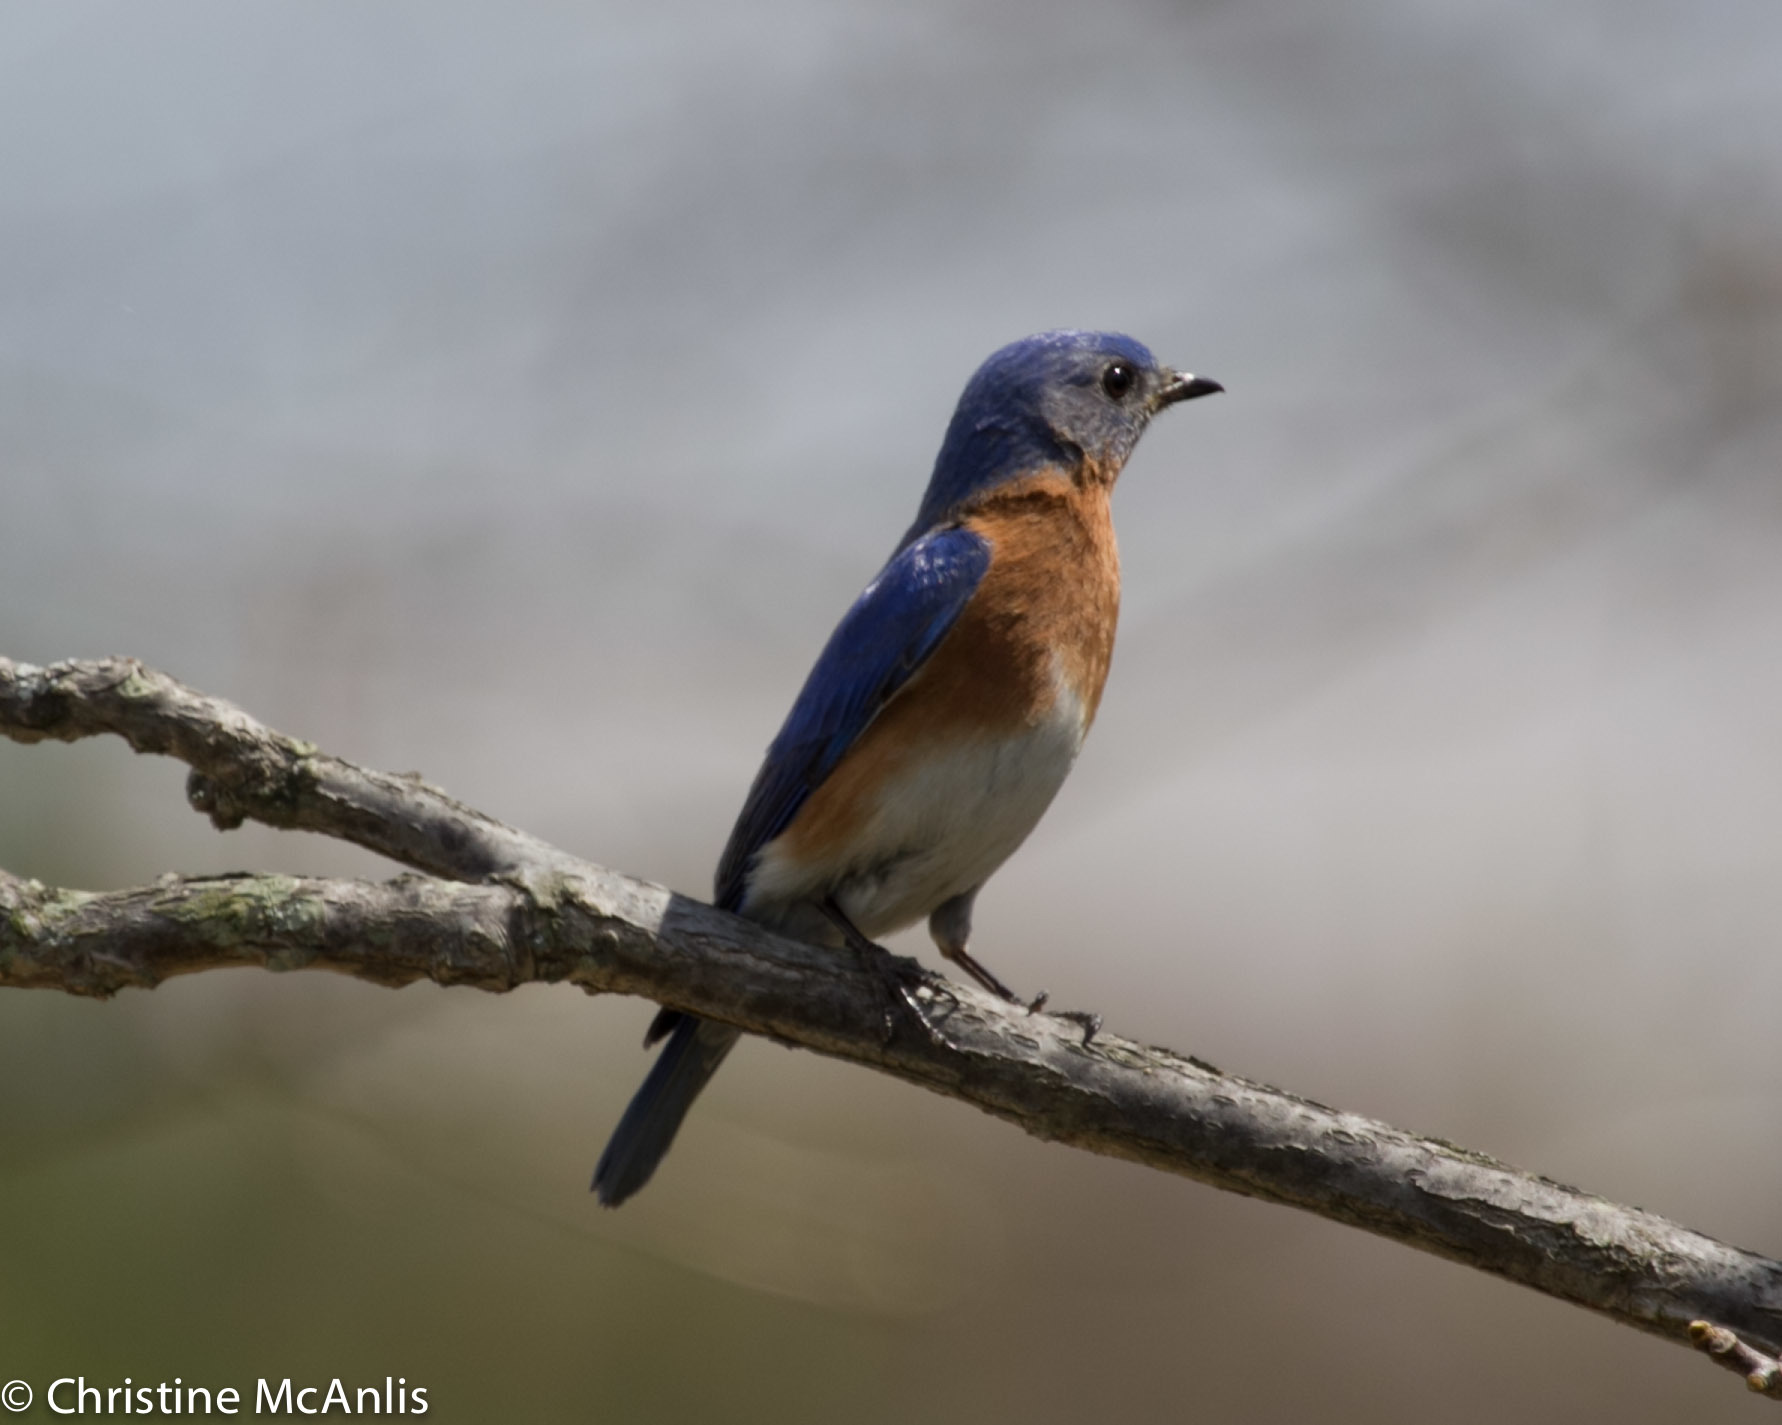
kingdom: Animalia
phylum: Chordata
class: Aves
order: Passeriformes
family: Turdidae
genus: Sialia
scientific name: Sialia sialis
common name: Eastern bluebird
